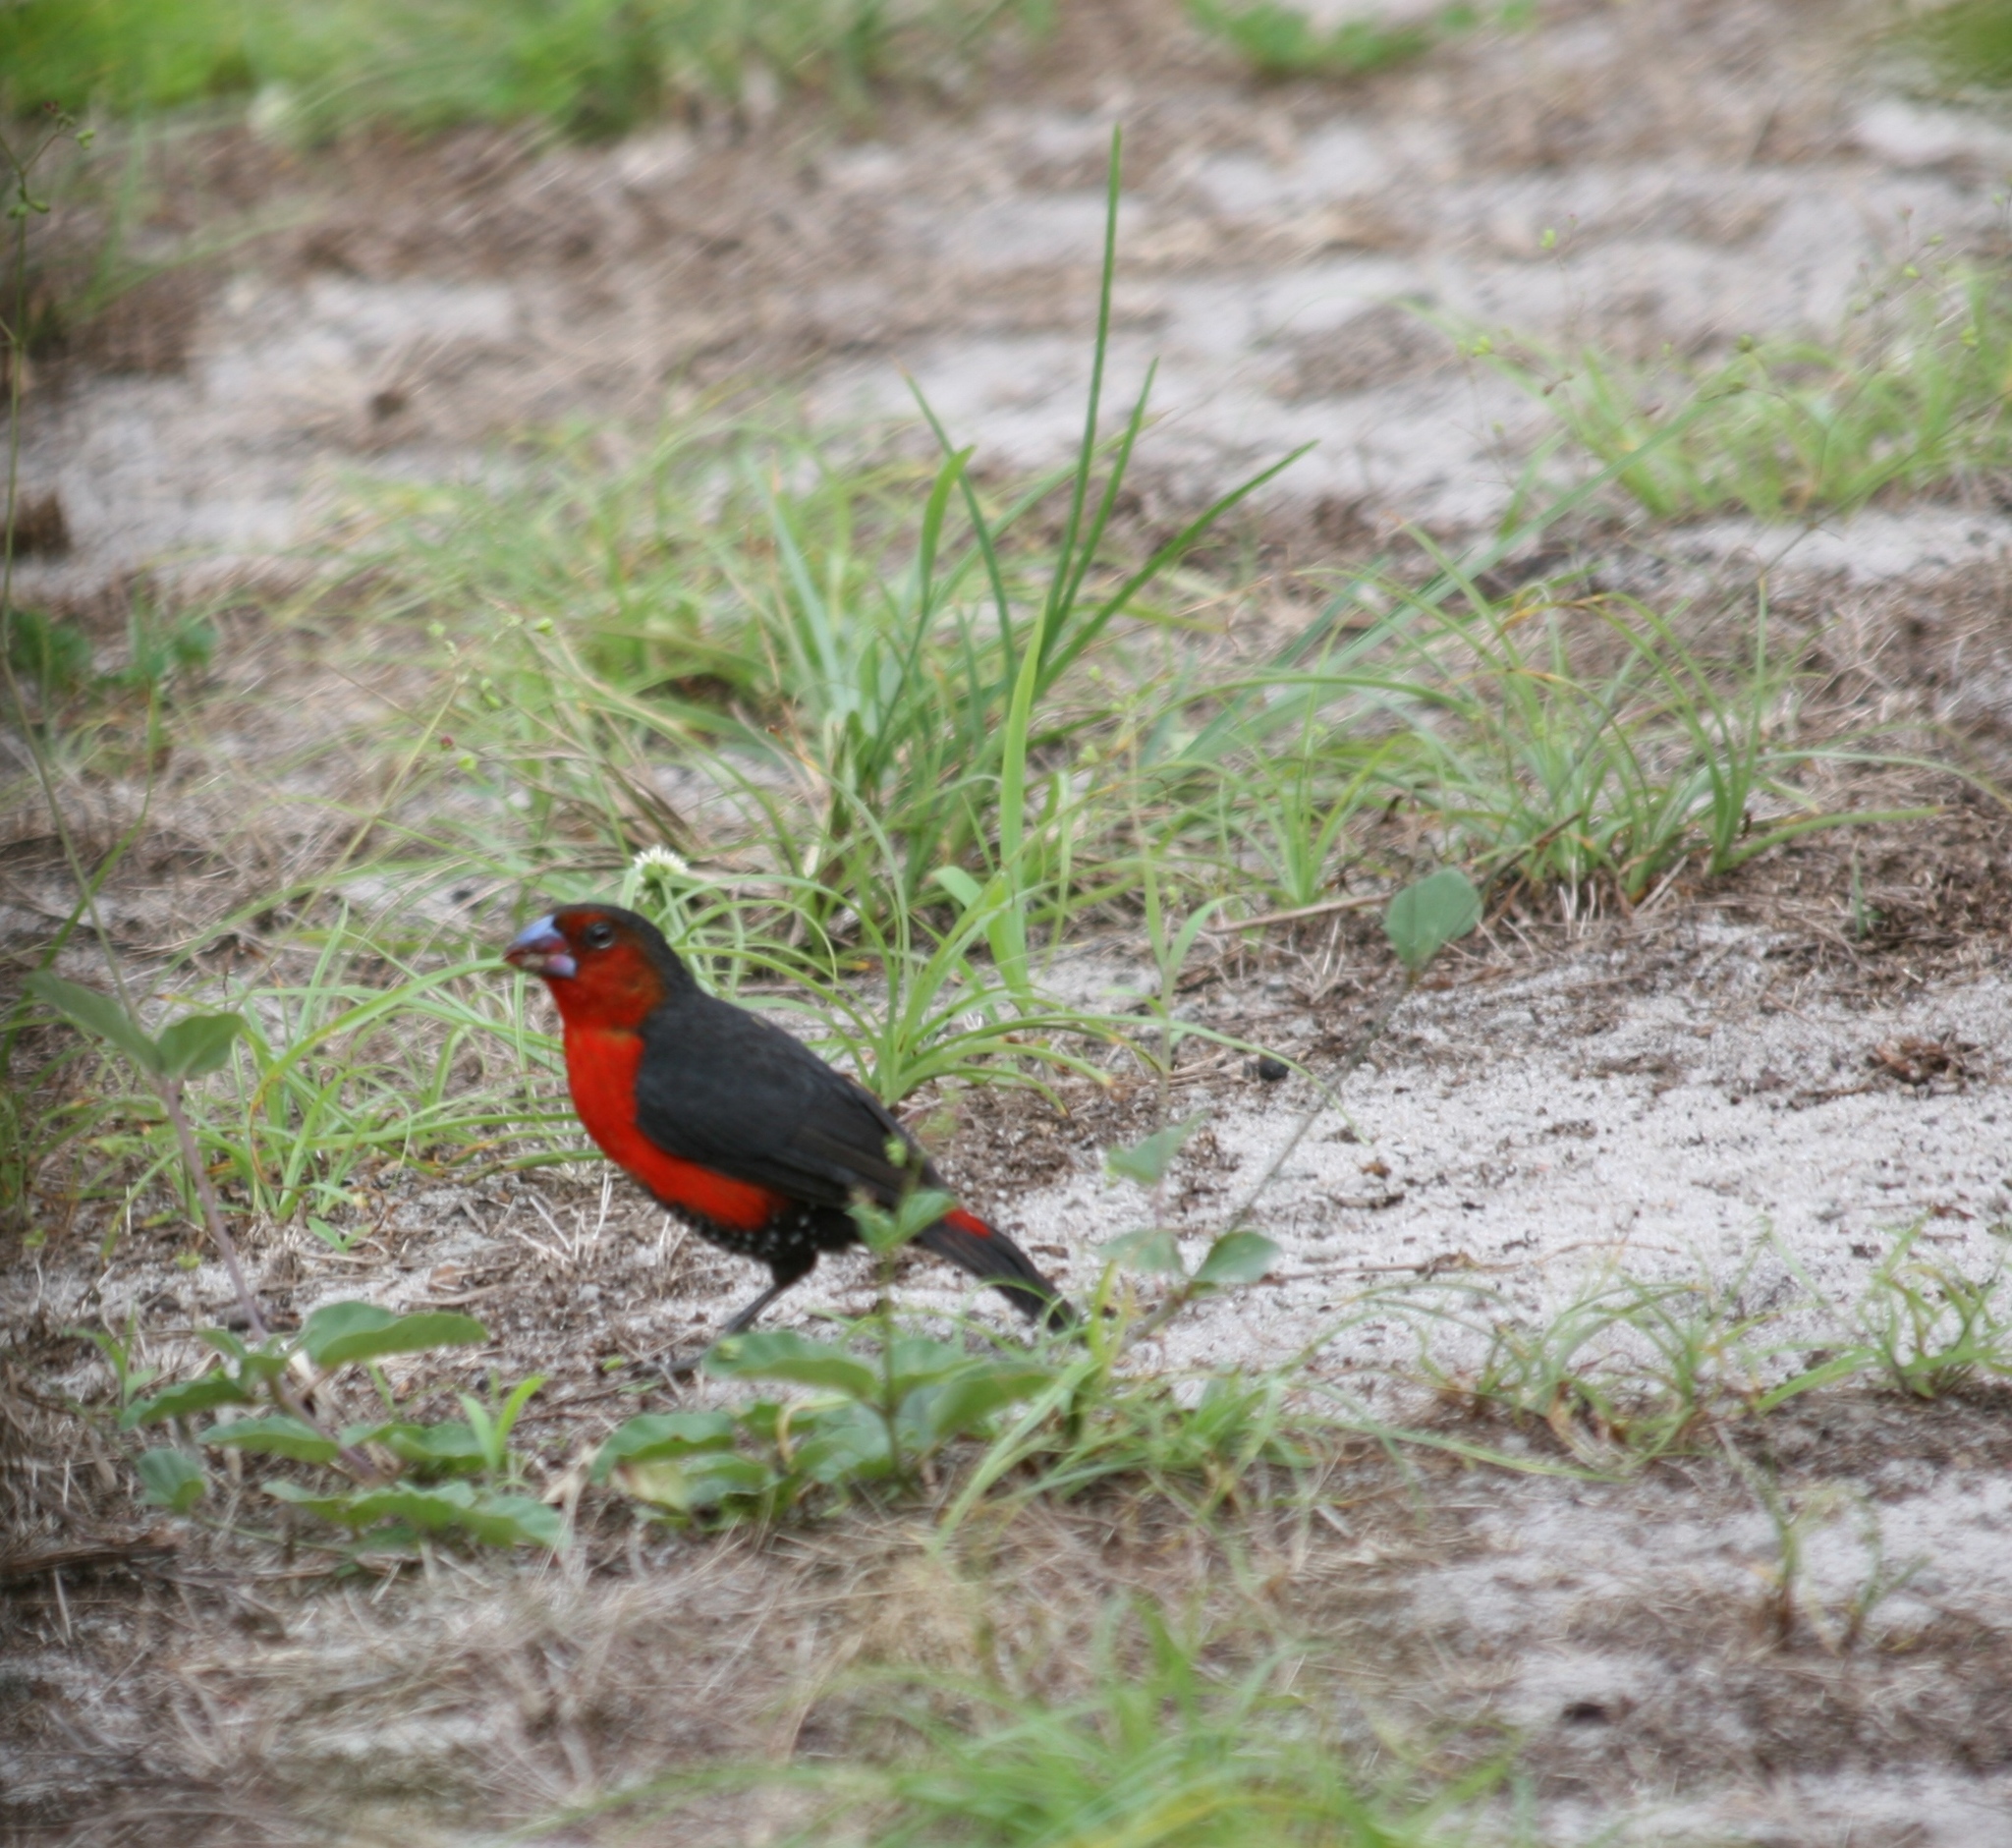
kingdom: Animalia
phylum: Chordata
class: Aves
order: Passeriformes
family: Estrildidae
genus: Spermophaga
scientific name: Spermophaga haematina
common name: Western bluebill
